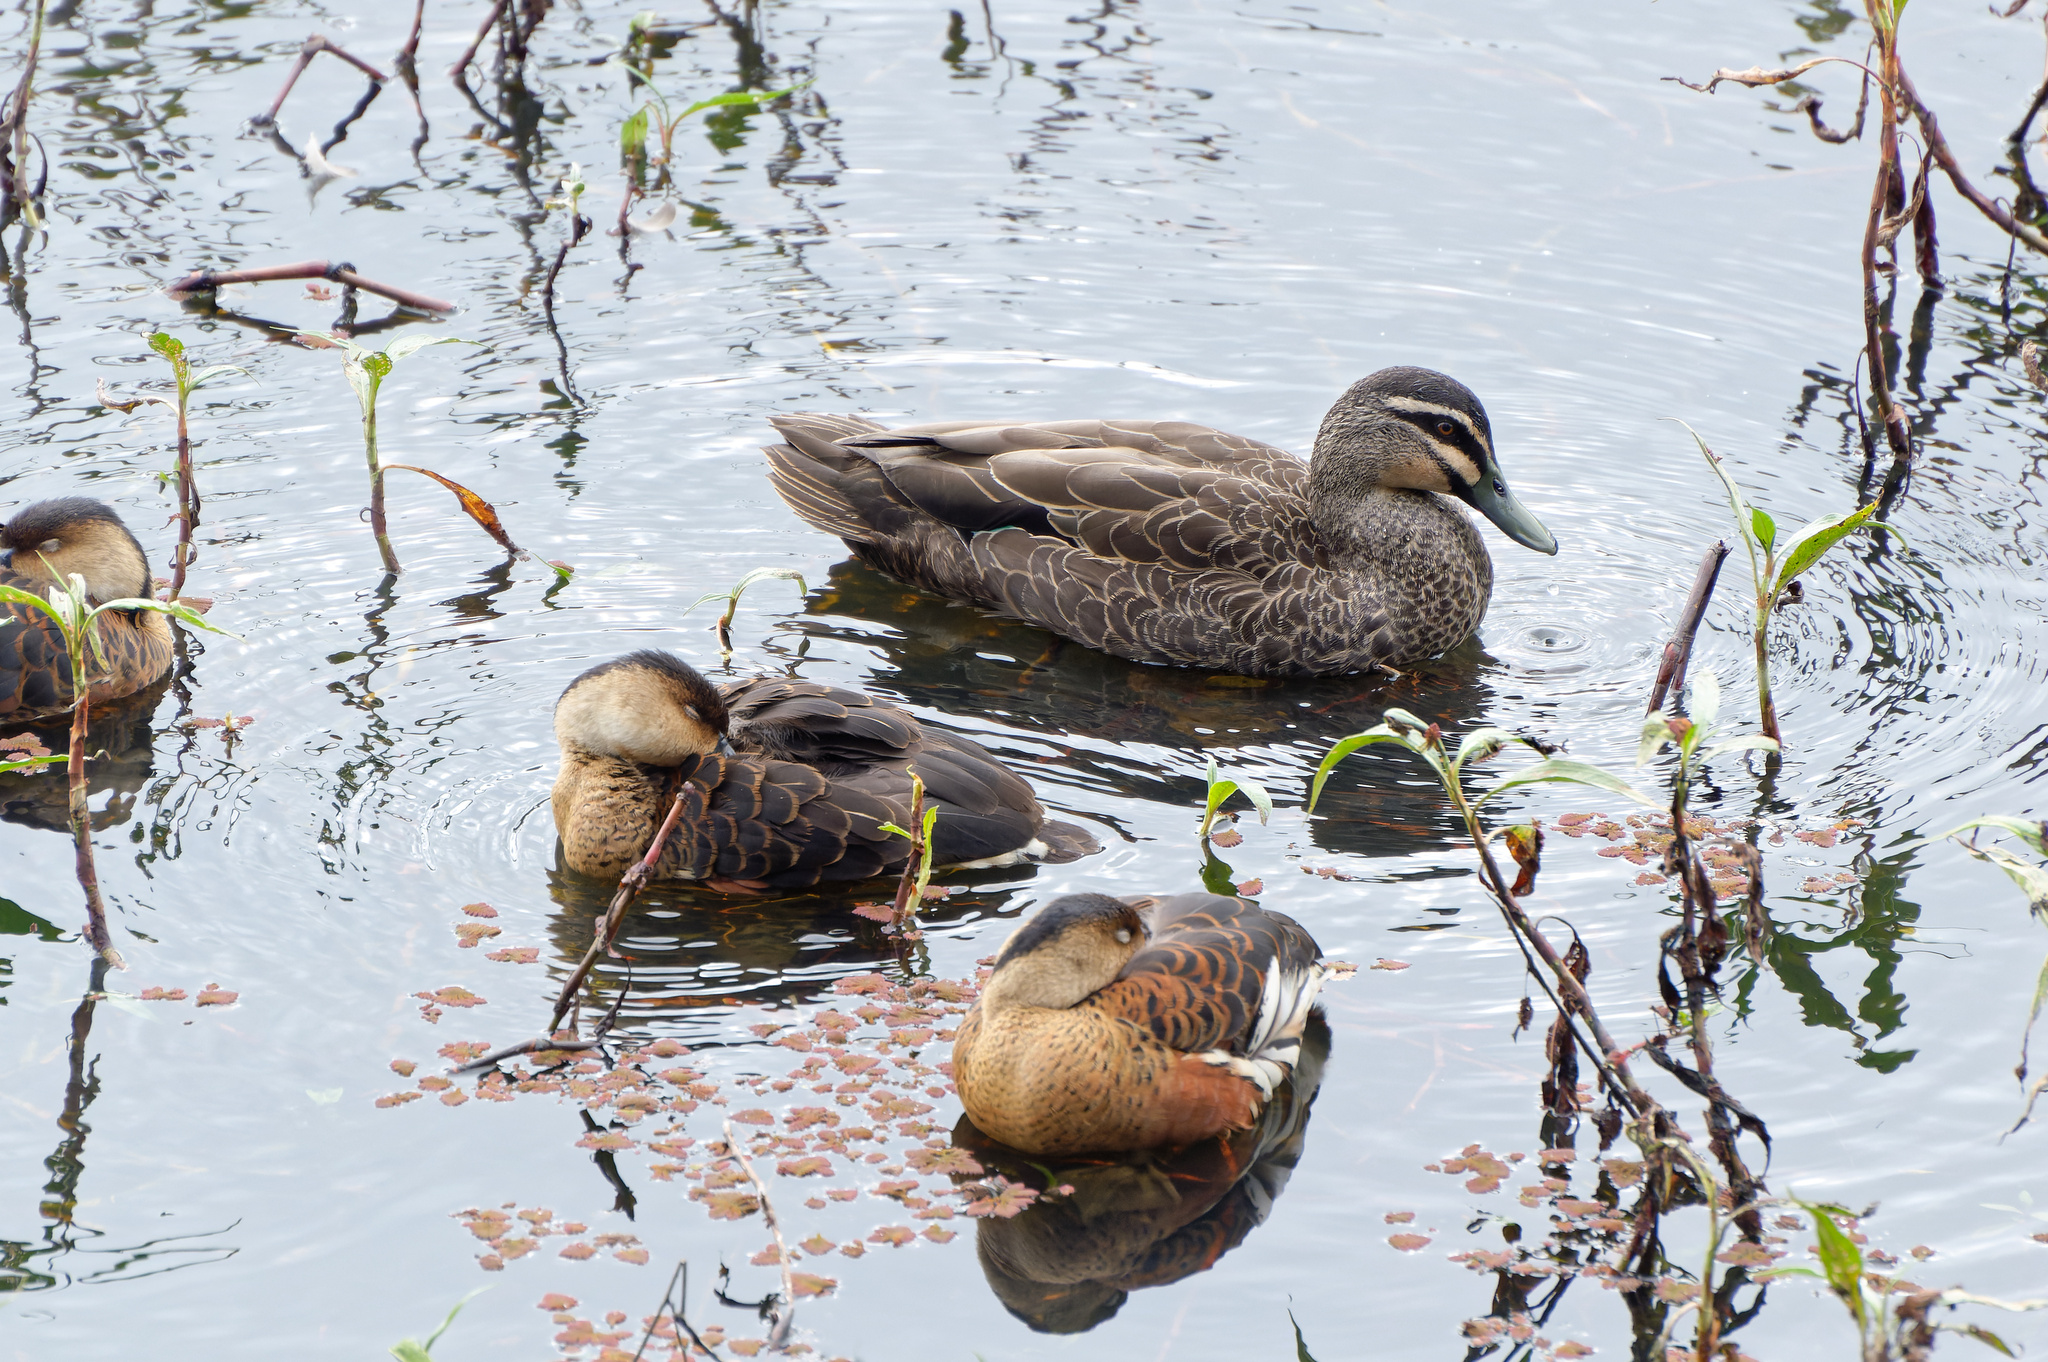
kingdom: Animalia
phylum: Chordata
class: Aves
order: Anseriformes
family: Anatidae
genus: Anas
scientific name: Anas superciliosa
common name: Pacific black duck
